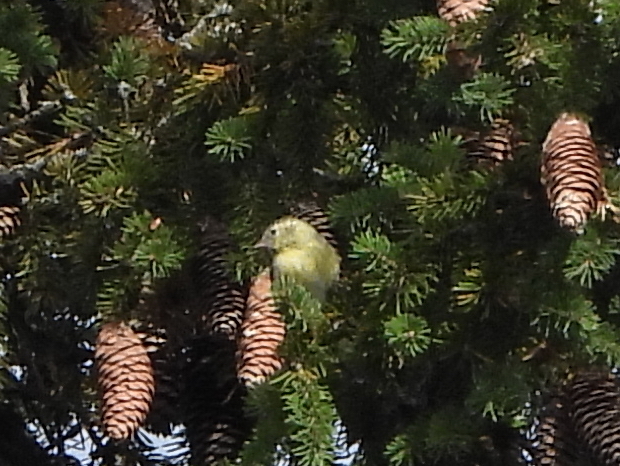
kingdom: Animalia
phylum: Chordata
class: Aves
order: Passeriformes
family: Fringillidae
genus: Spinus
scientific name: Spinus spinus
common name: Eurasian siskin
